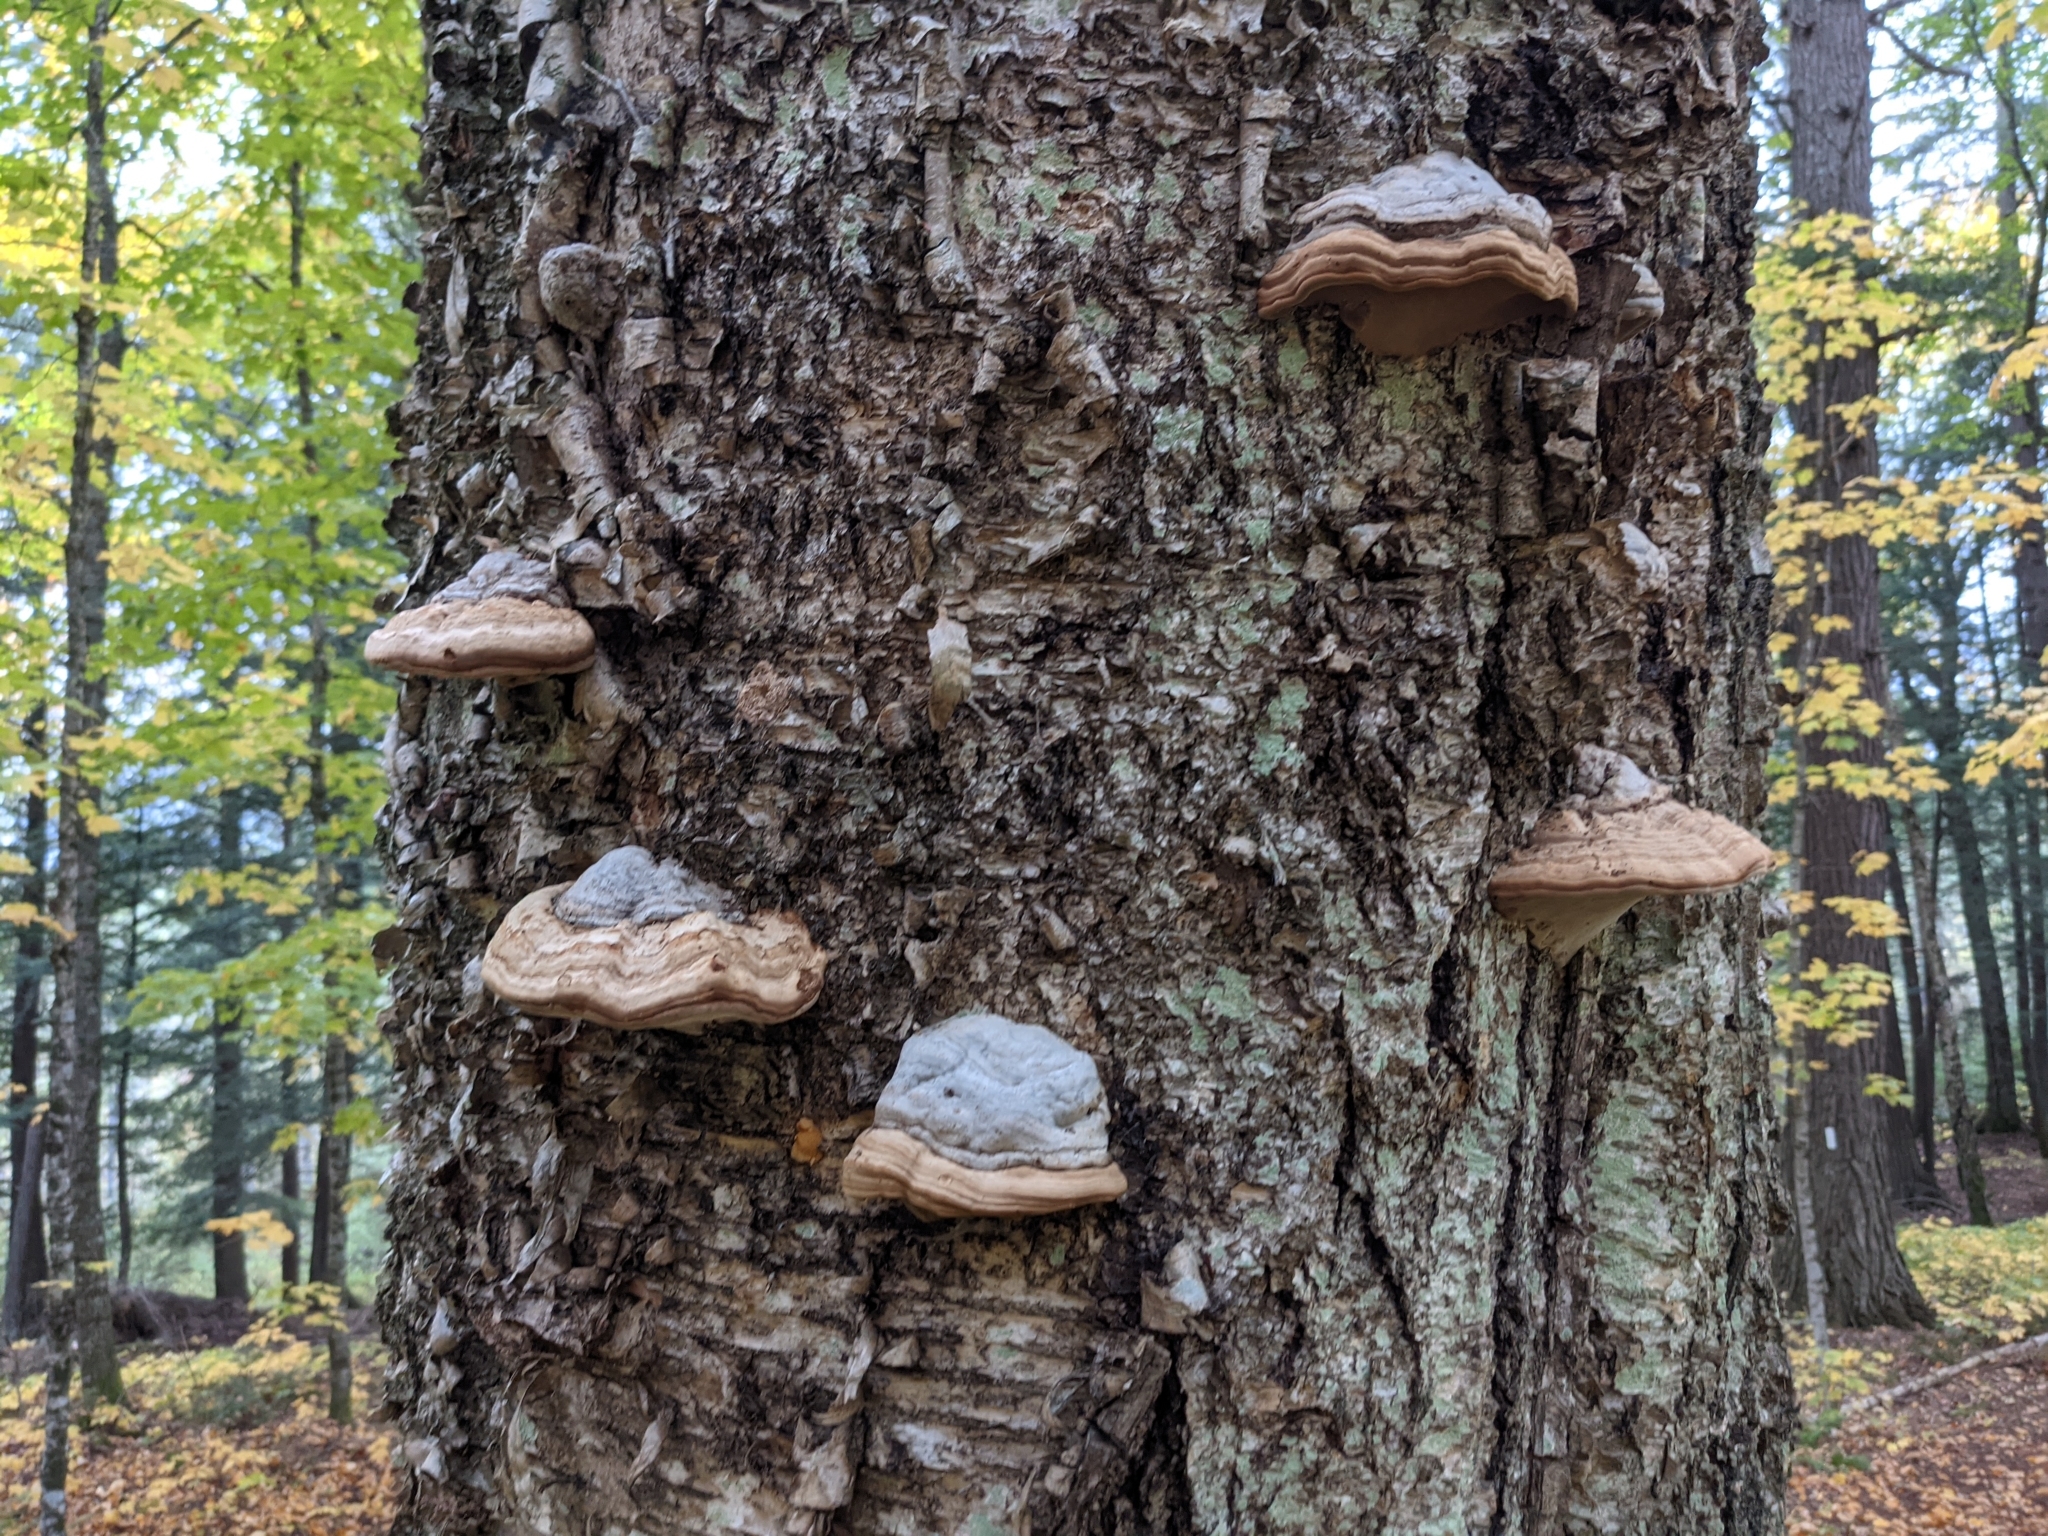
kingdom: Fungi
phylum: Basidiomycota
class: Agaricomycetes
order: Polyporales
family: Polyporaceae
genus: Fomes
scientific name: Fomes fomentarius
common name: Hoof fungus
